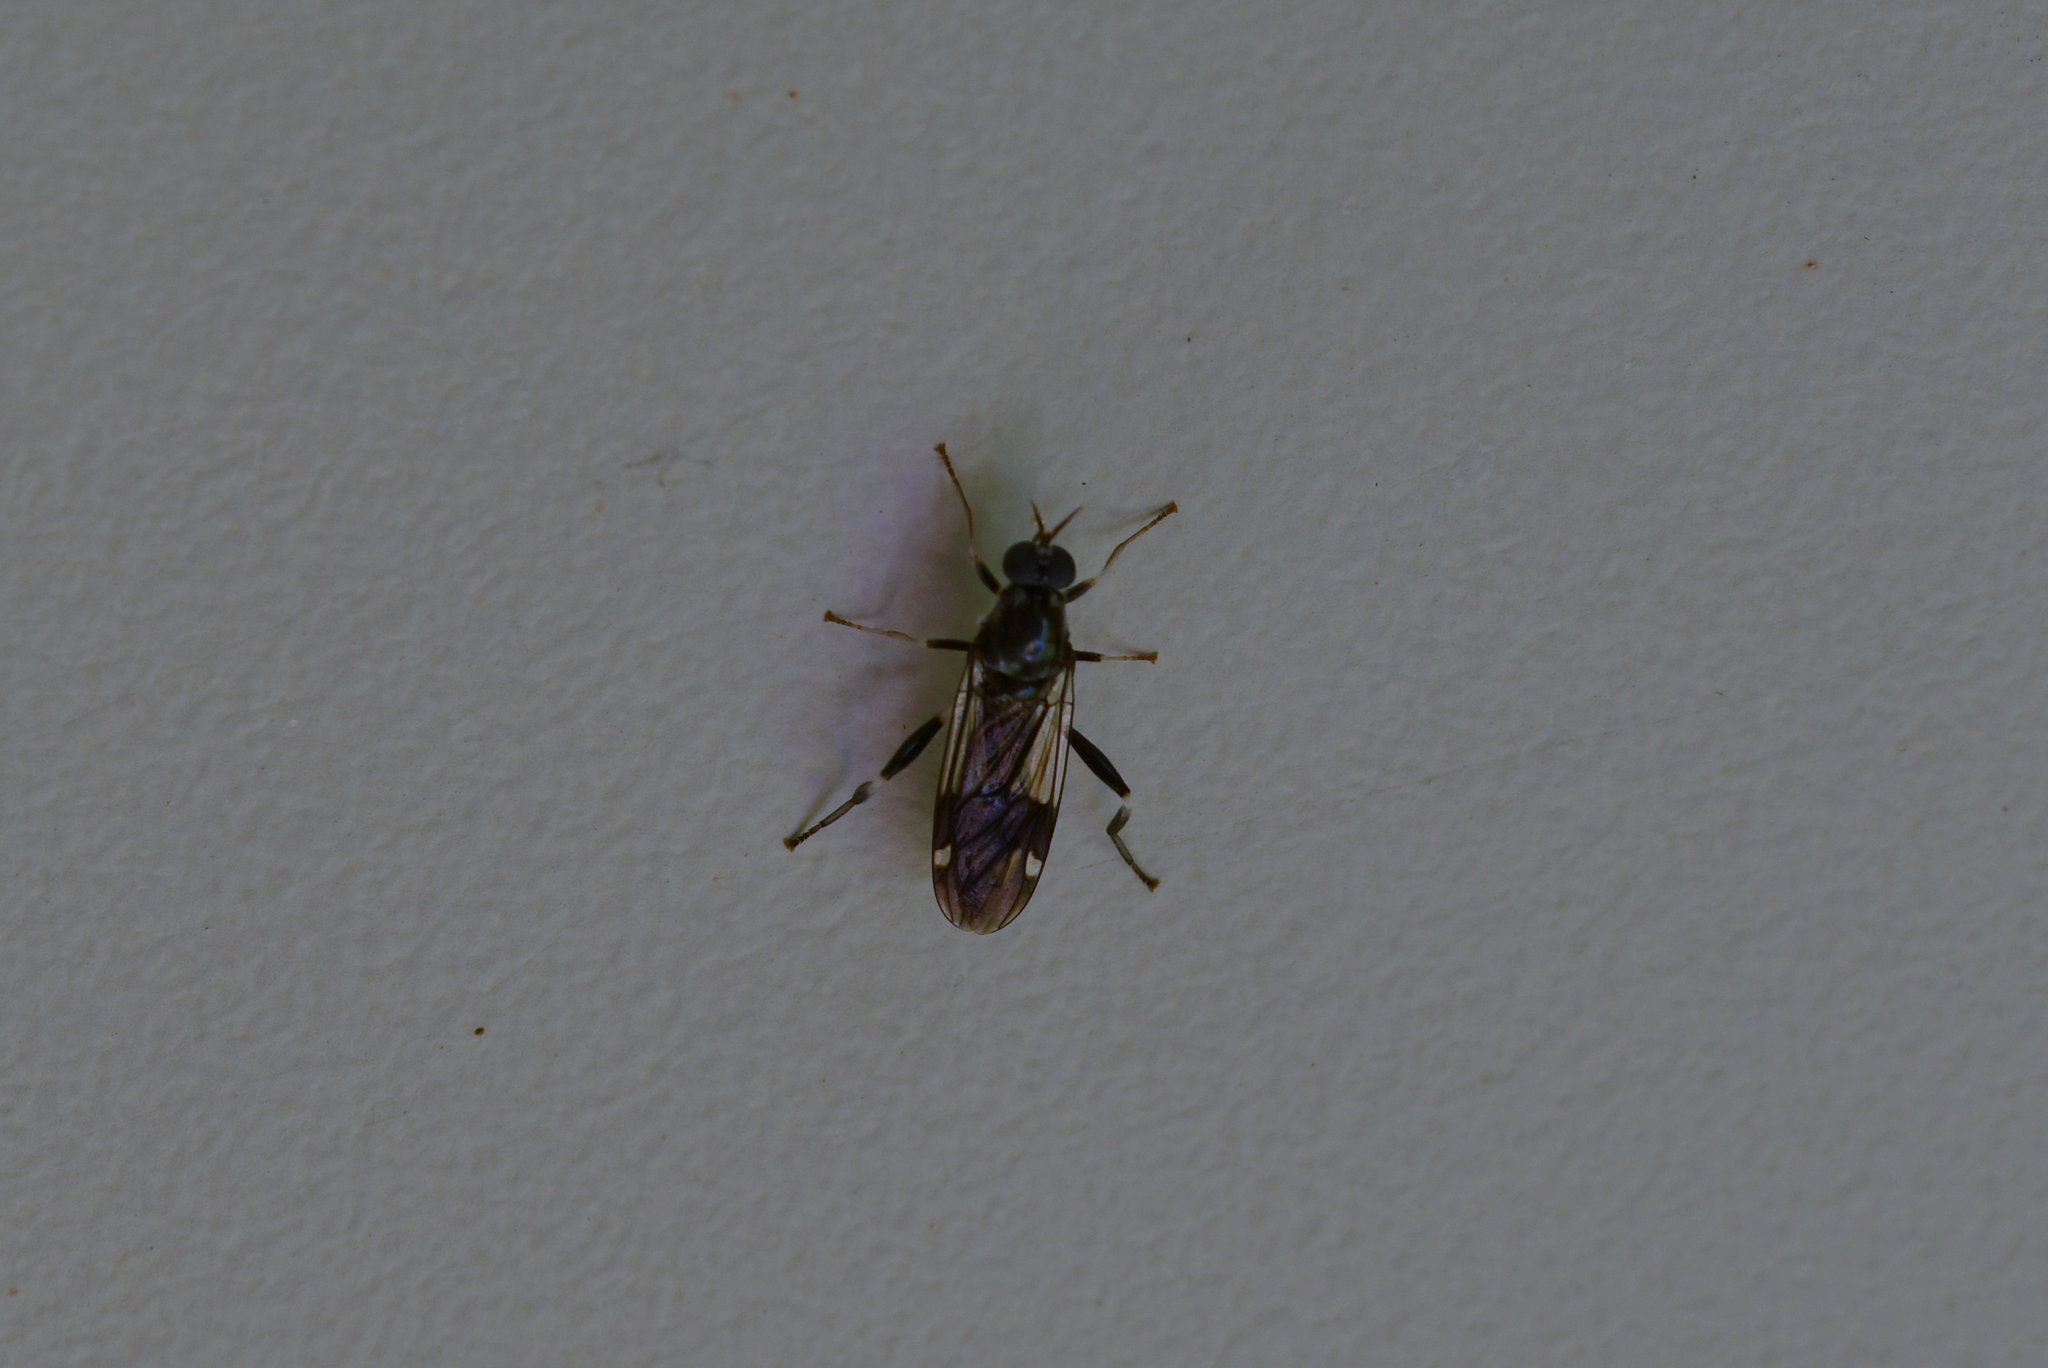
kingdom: Animalia
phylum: Arthropoda
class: Insecta
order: Diptera
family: Stratiomyidae
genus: Exaireta
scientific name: Exaireta spinigera
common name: Blue soldier fly
